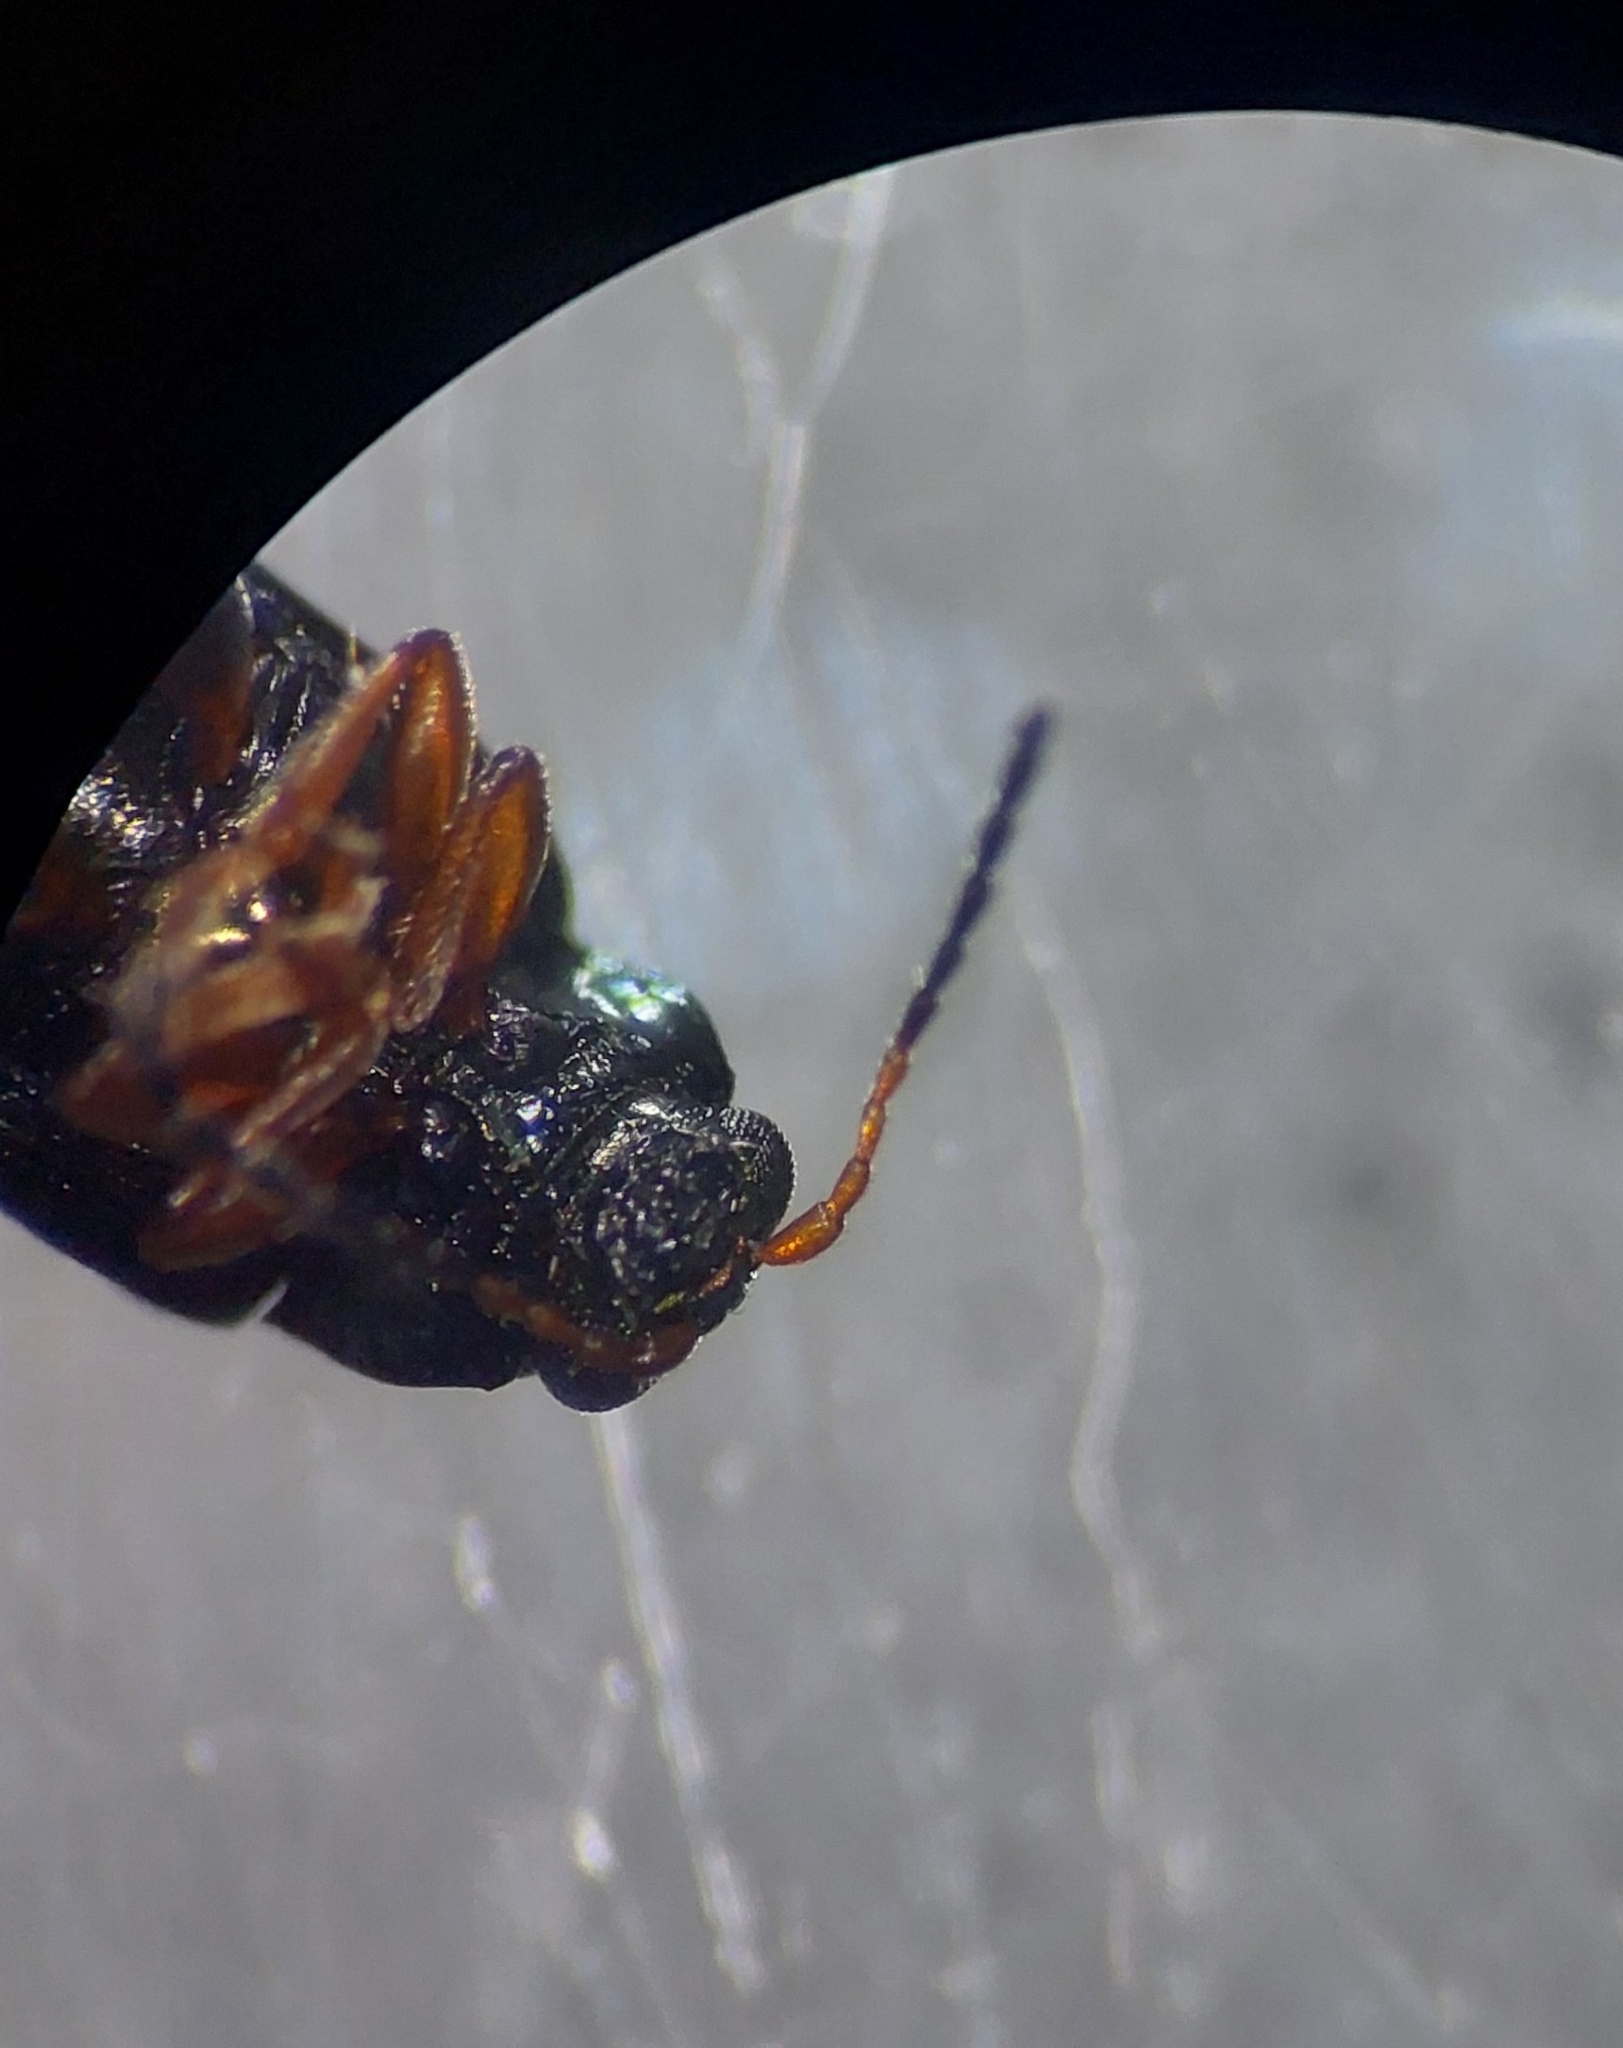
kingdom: Animalia
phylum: Arthropoda
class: Insecta
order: Coleoptera
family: Chrysomelidae
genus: Crepidodera
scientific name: Crepidodera plutus
